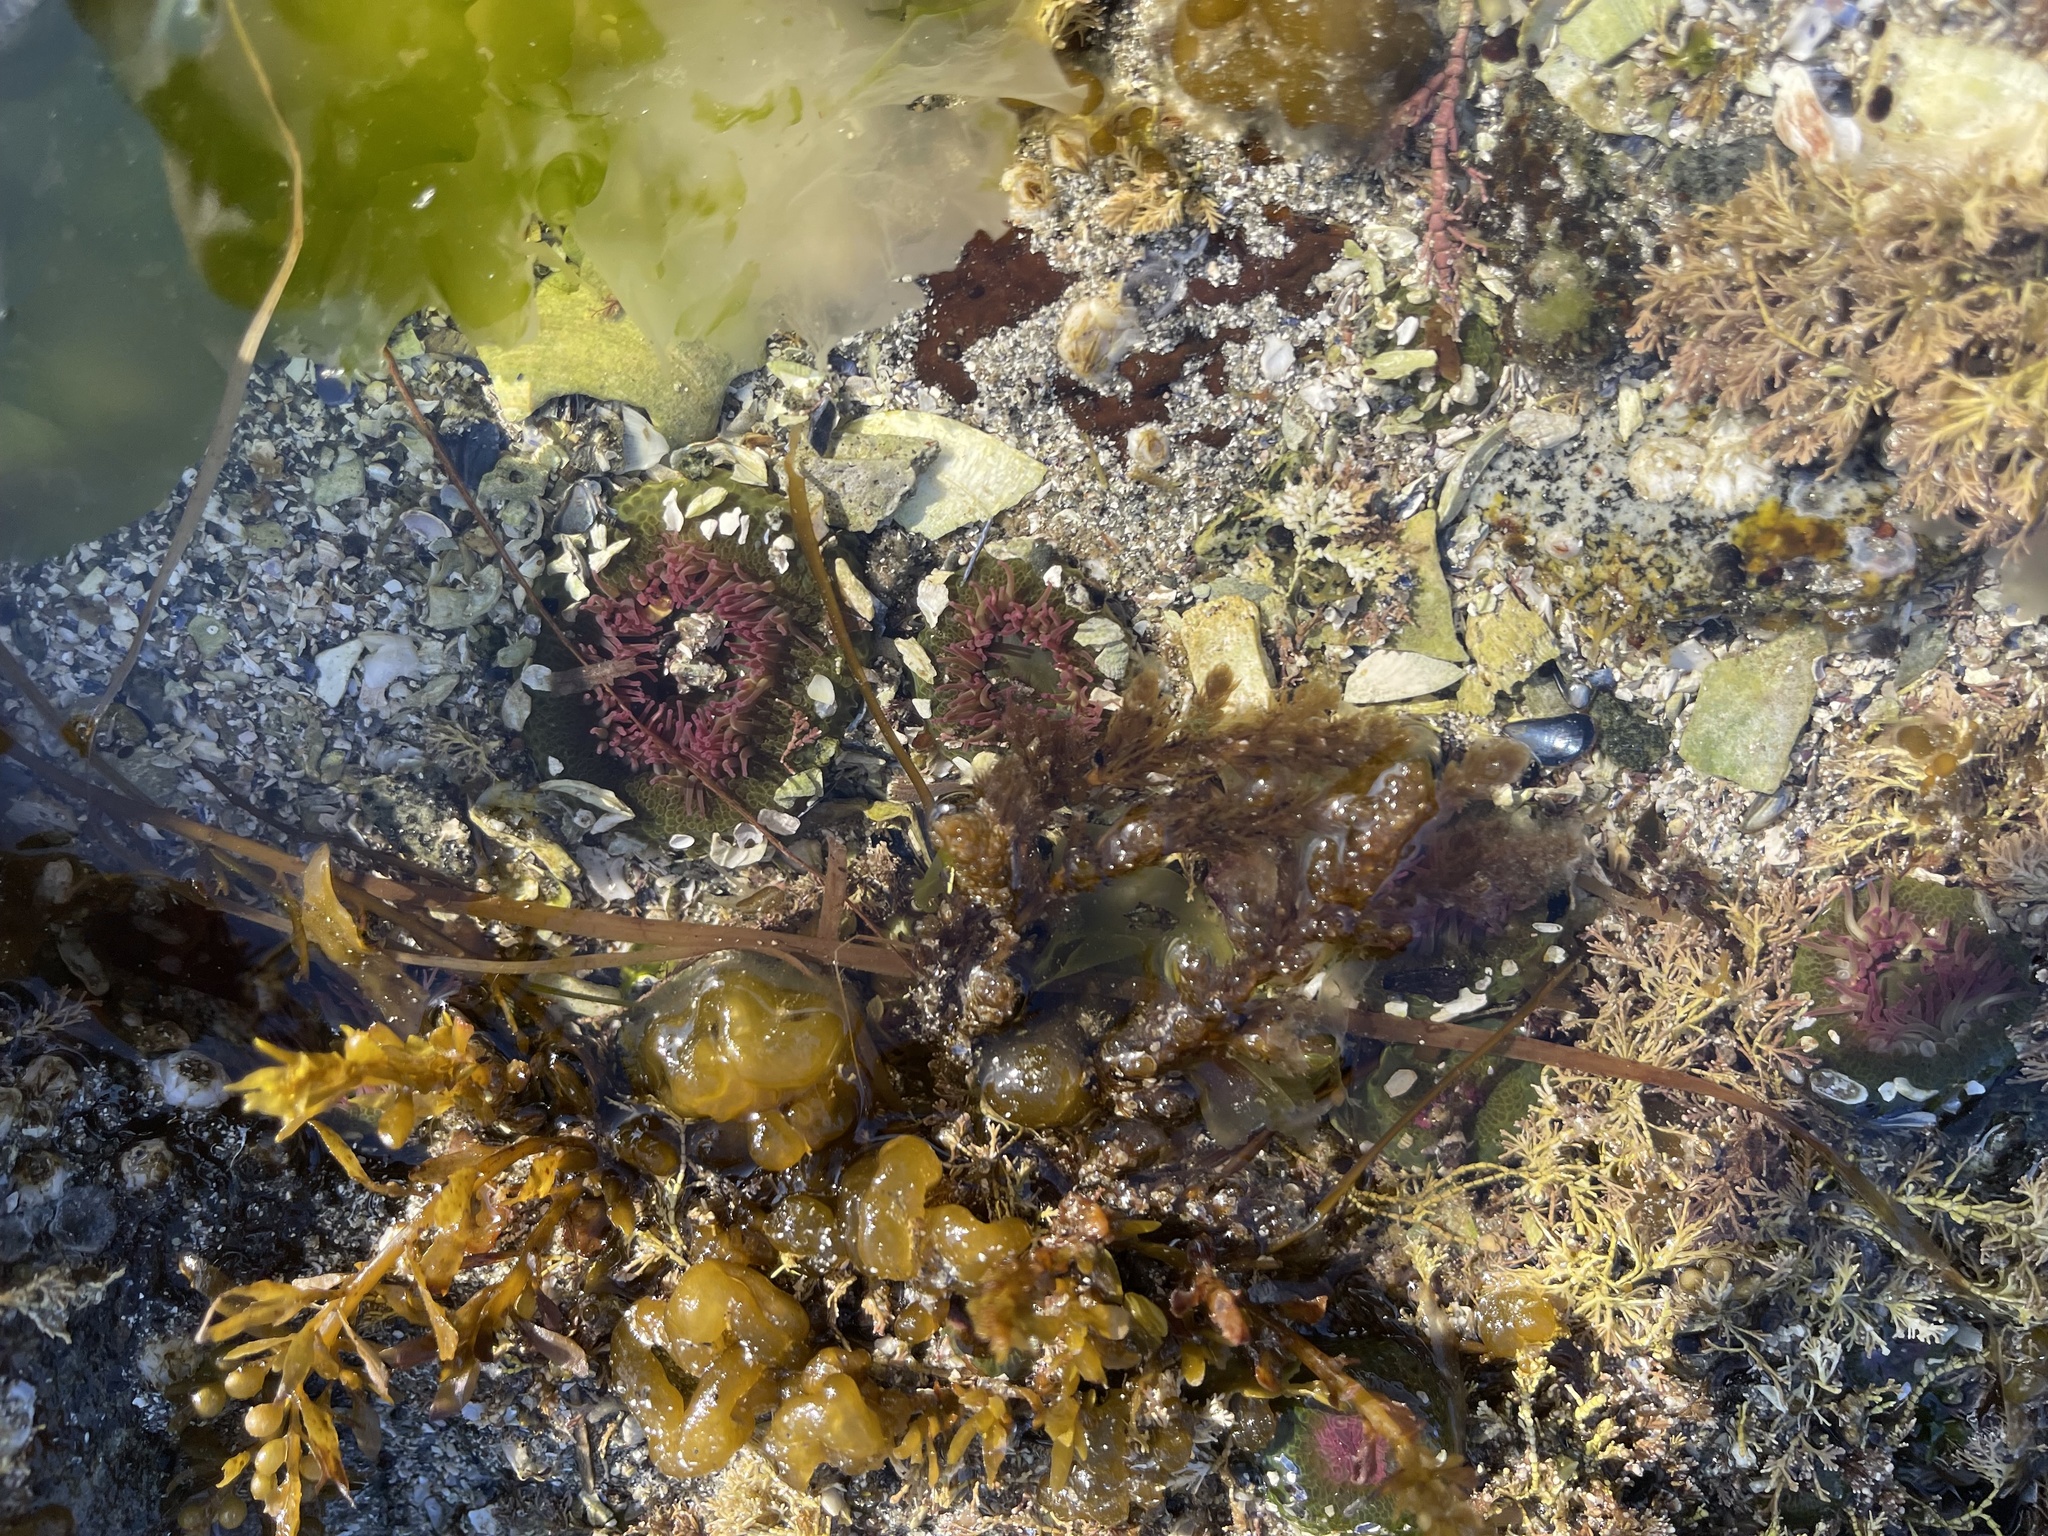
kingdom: Animalia
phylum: Cnidaria
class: Anthozoa
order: Actiniaria
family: Actiniidae
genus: Anthopleura
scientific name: Anthopleura elegantissima
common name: Clonal anemone
